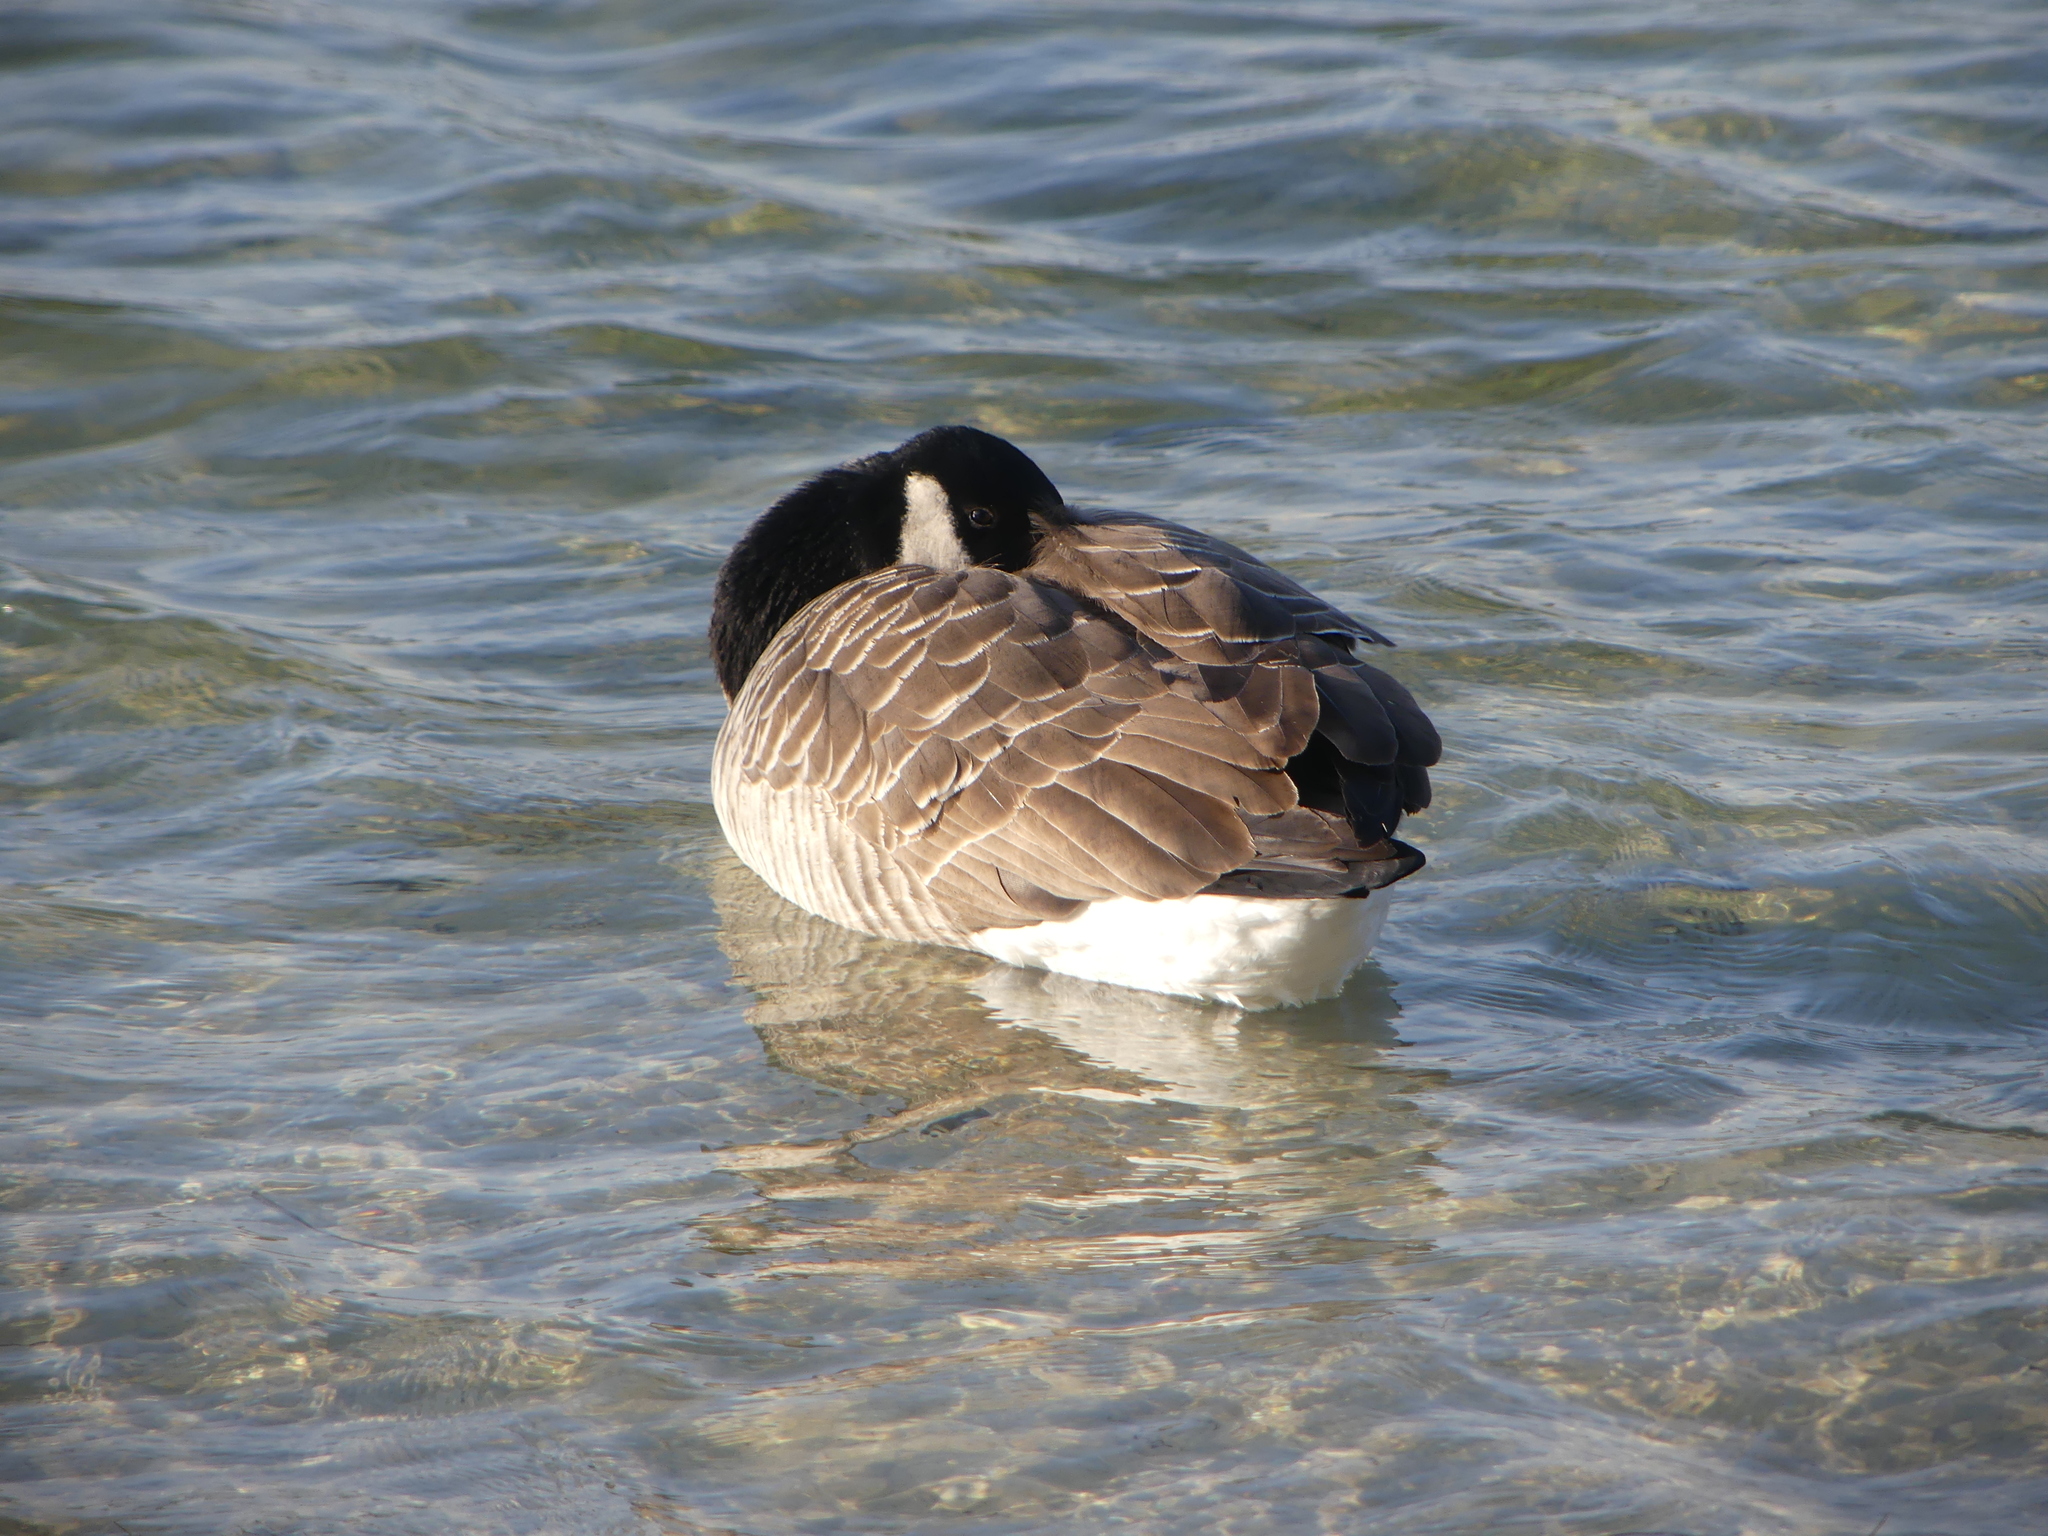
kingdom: Animalia
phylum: Chordata
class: Aves
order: Anseriformes
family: Anatidae
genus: Branta
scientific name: Branta canadensis
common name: Canada goose
